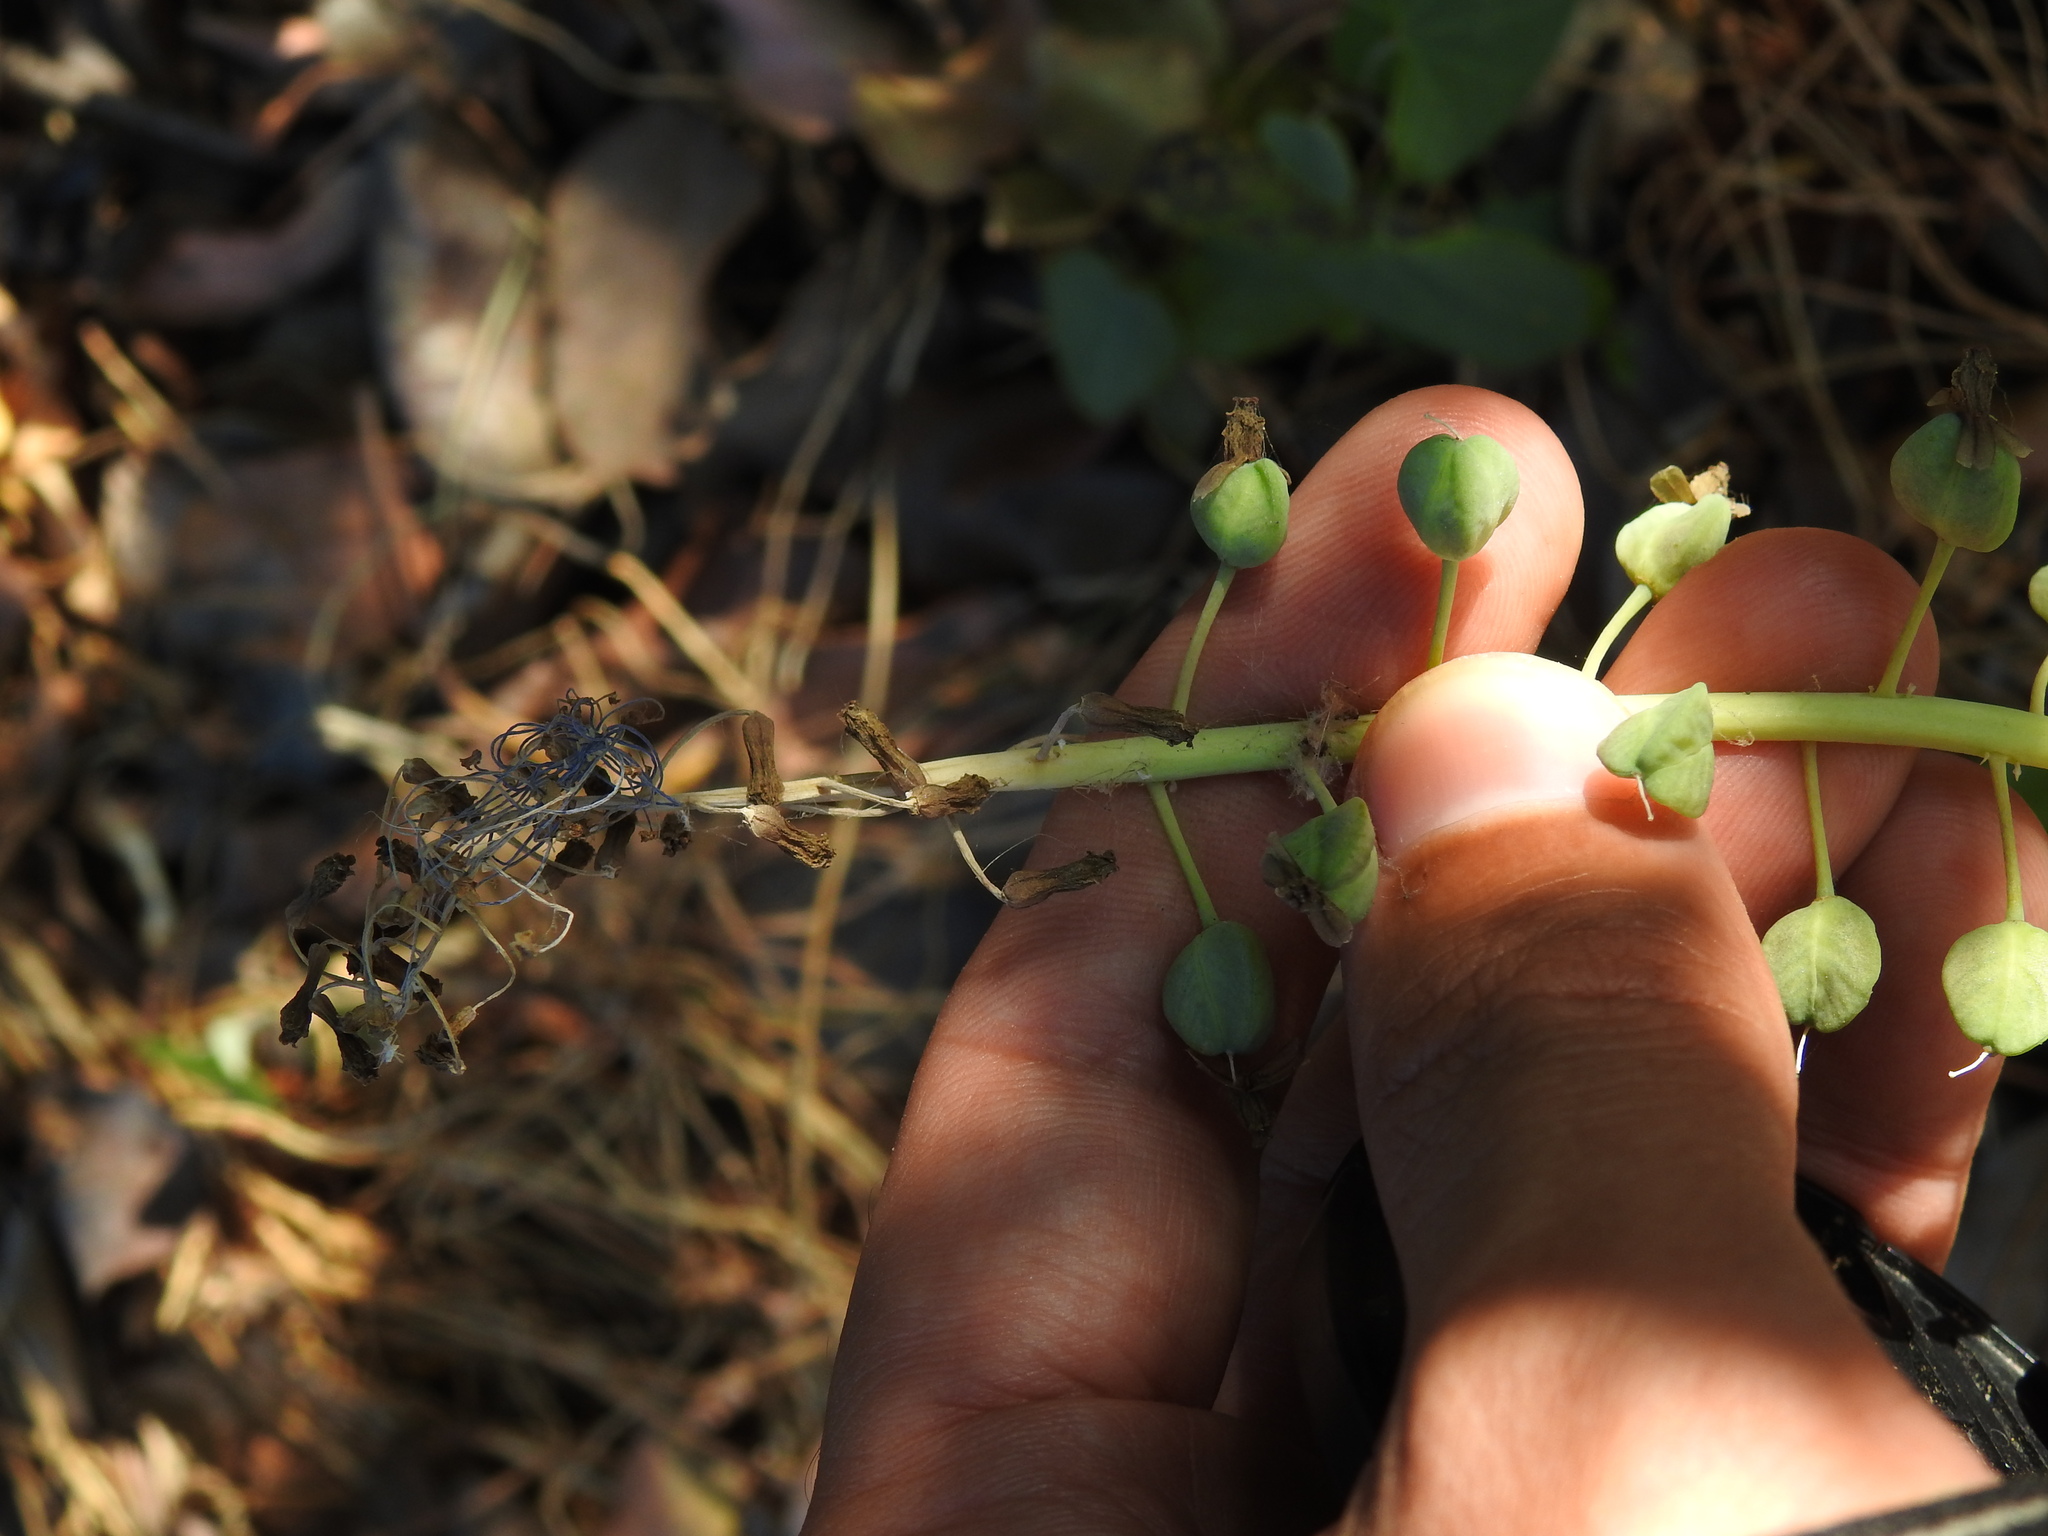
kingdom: Plantae
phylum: Tracheophyta
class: Liliopsida
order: Asparagales
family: Asparagaceae
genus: Muscari
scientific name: Muscari comosum
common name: Tassel hyacinth
